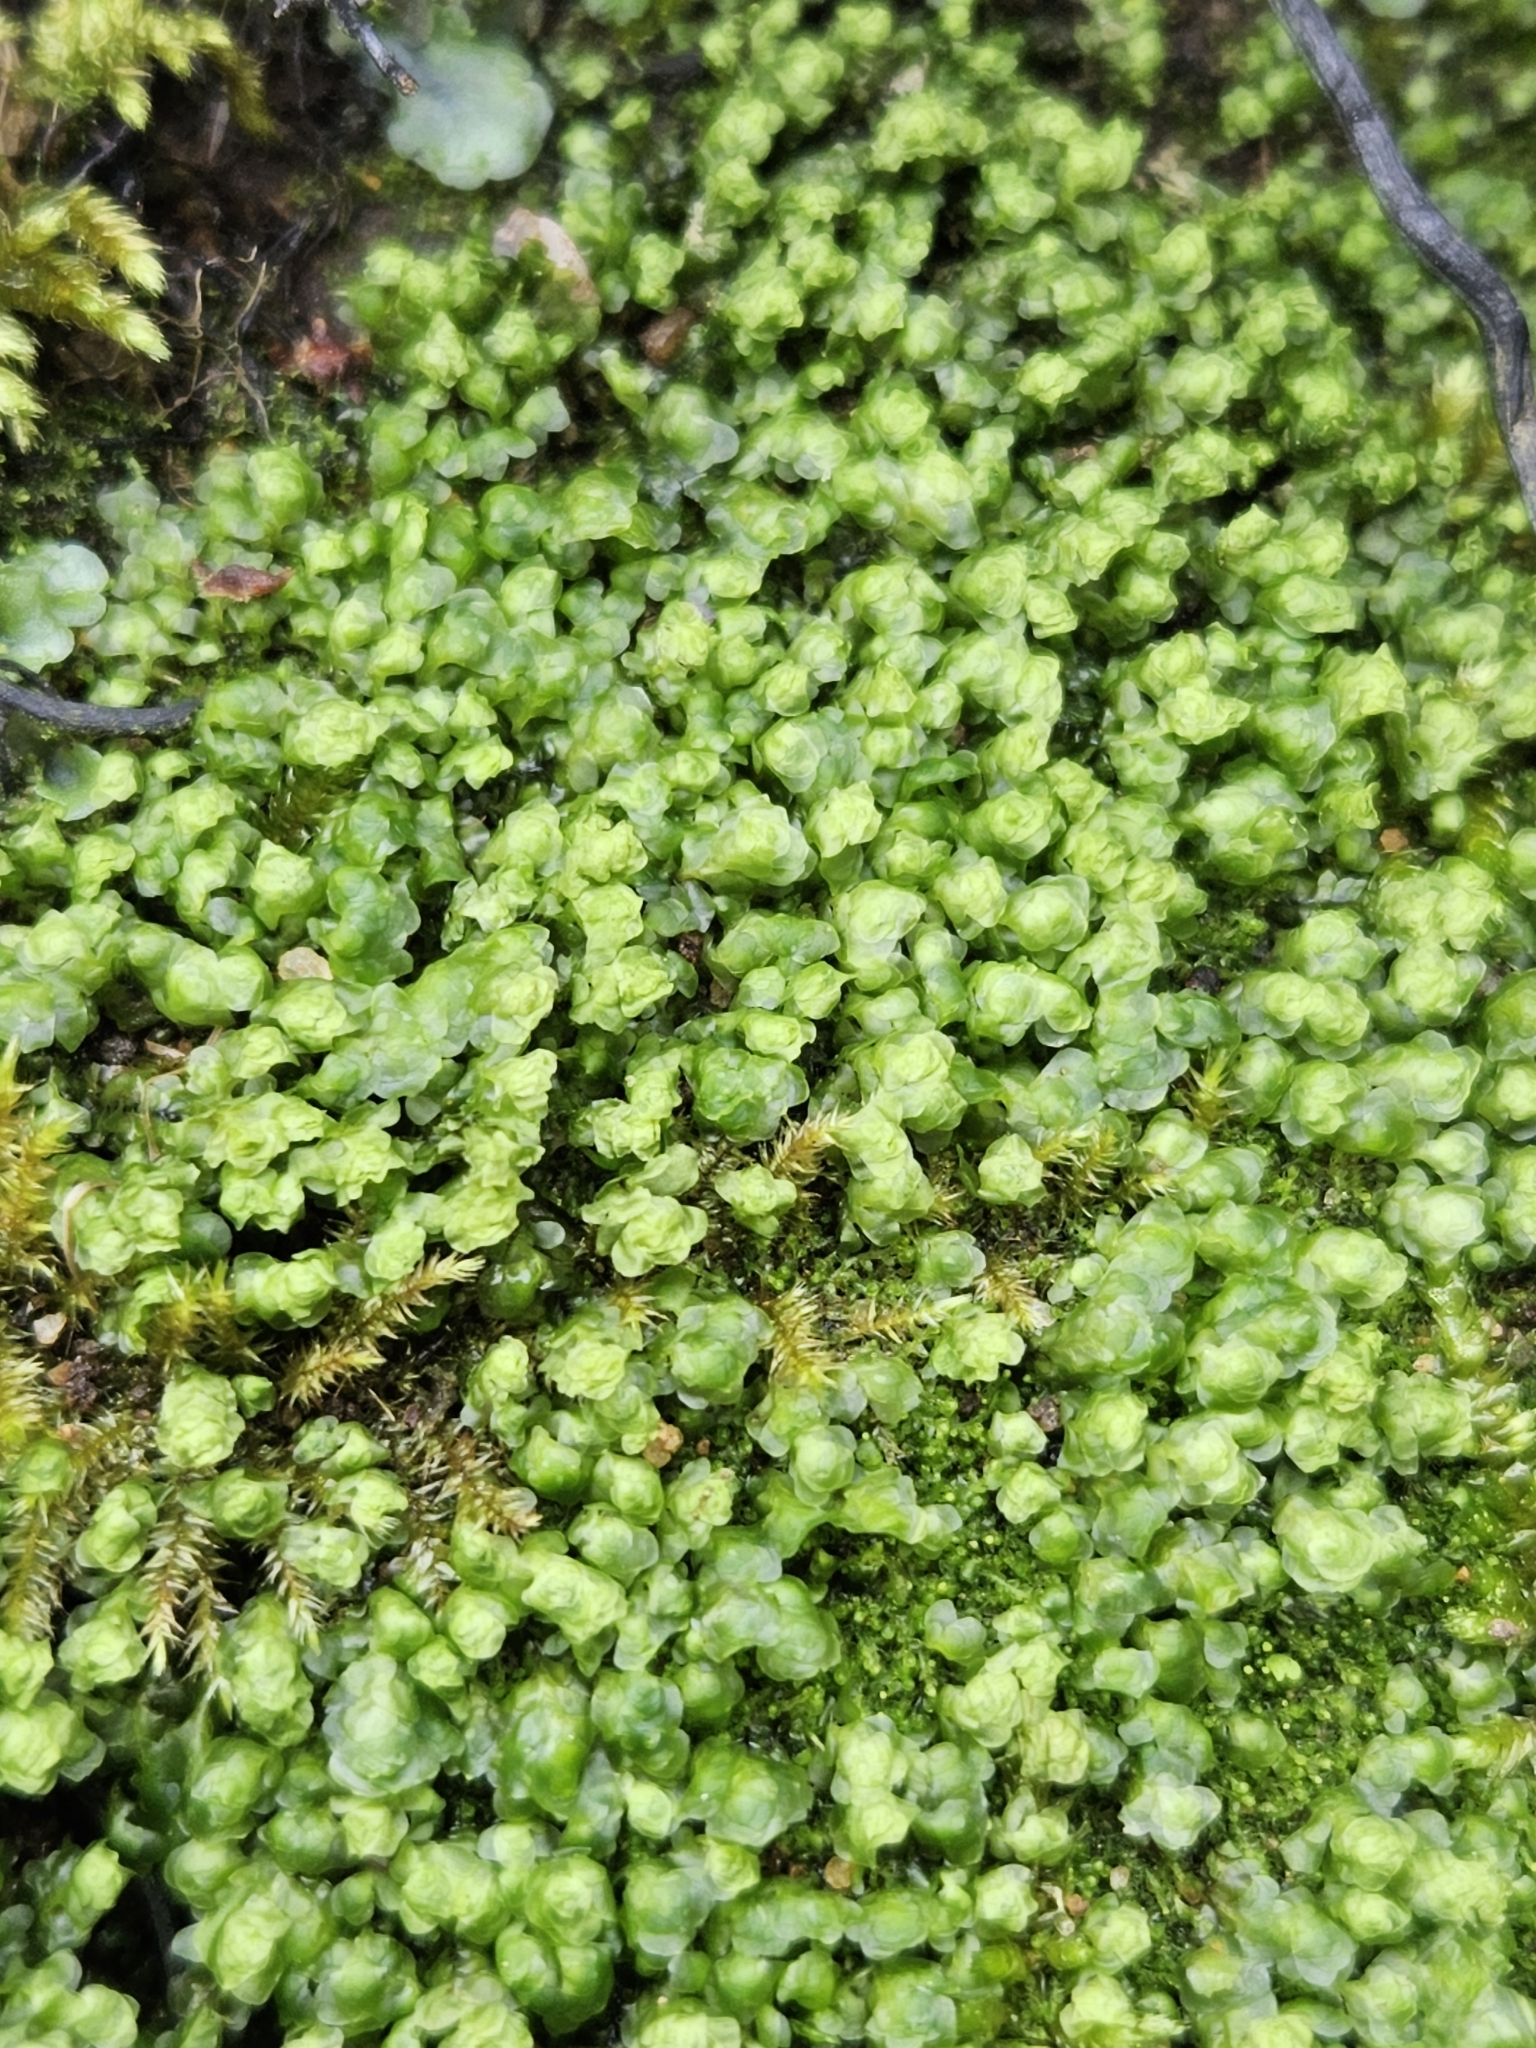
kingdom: Plantae
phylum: Marchantiophyta
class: Jungermanniopsida
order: Jungermanniales
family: Scapaniaceae
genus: Scapania
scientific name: Scapania undulata
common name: Water earwort
